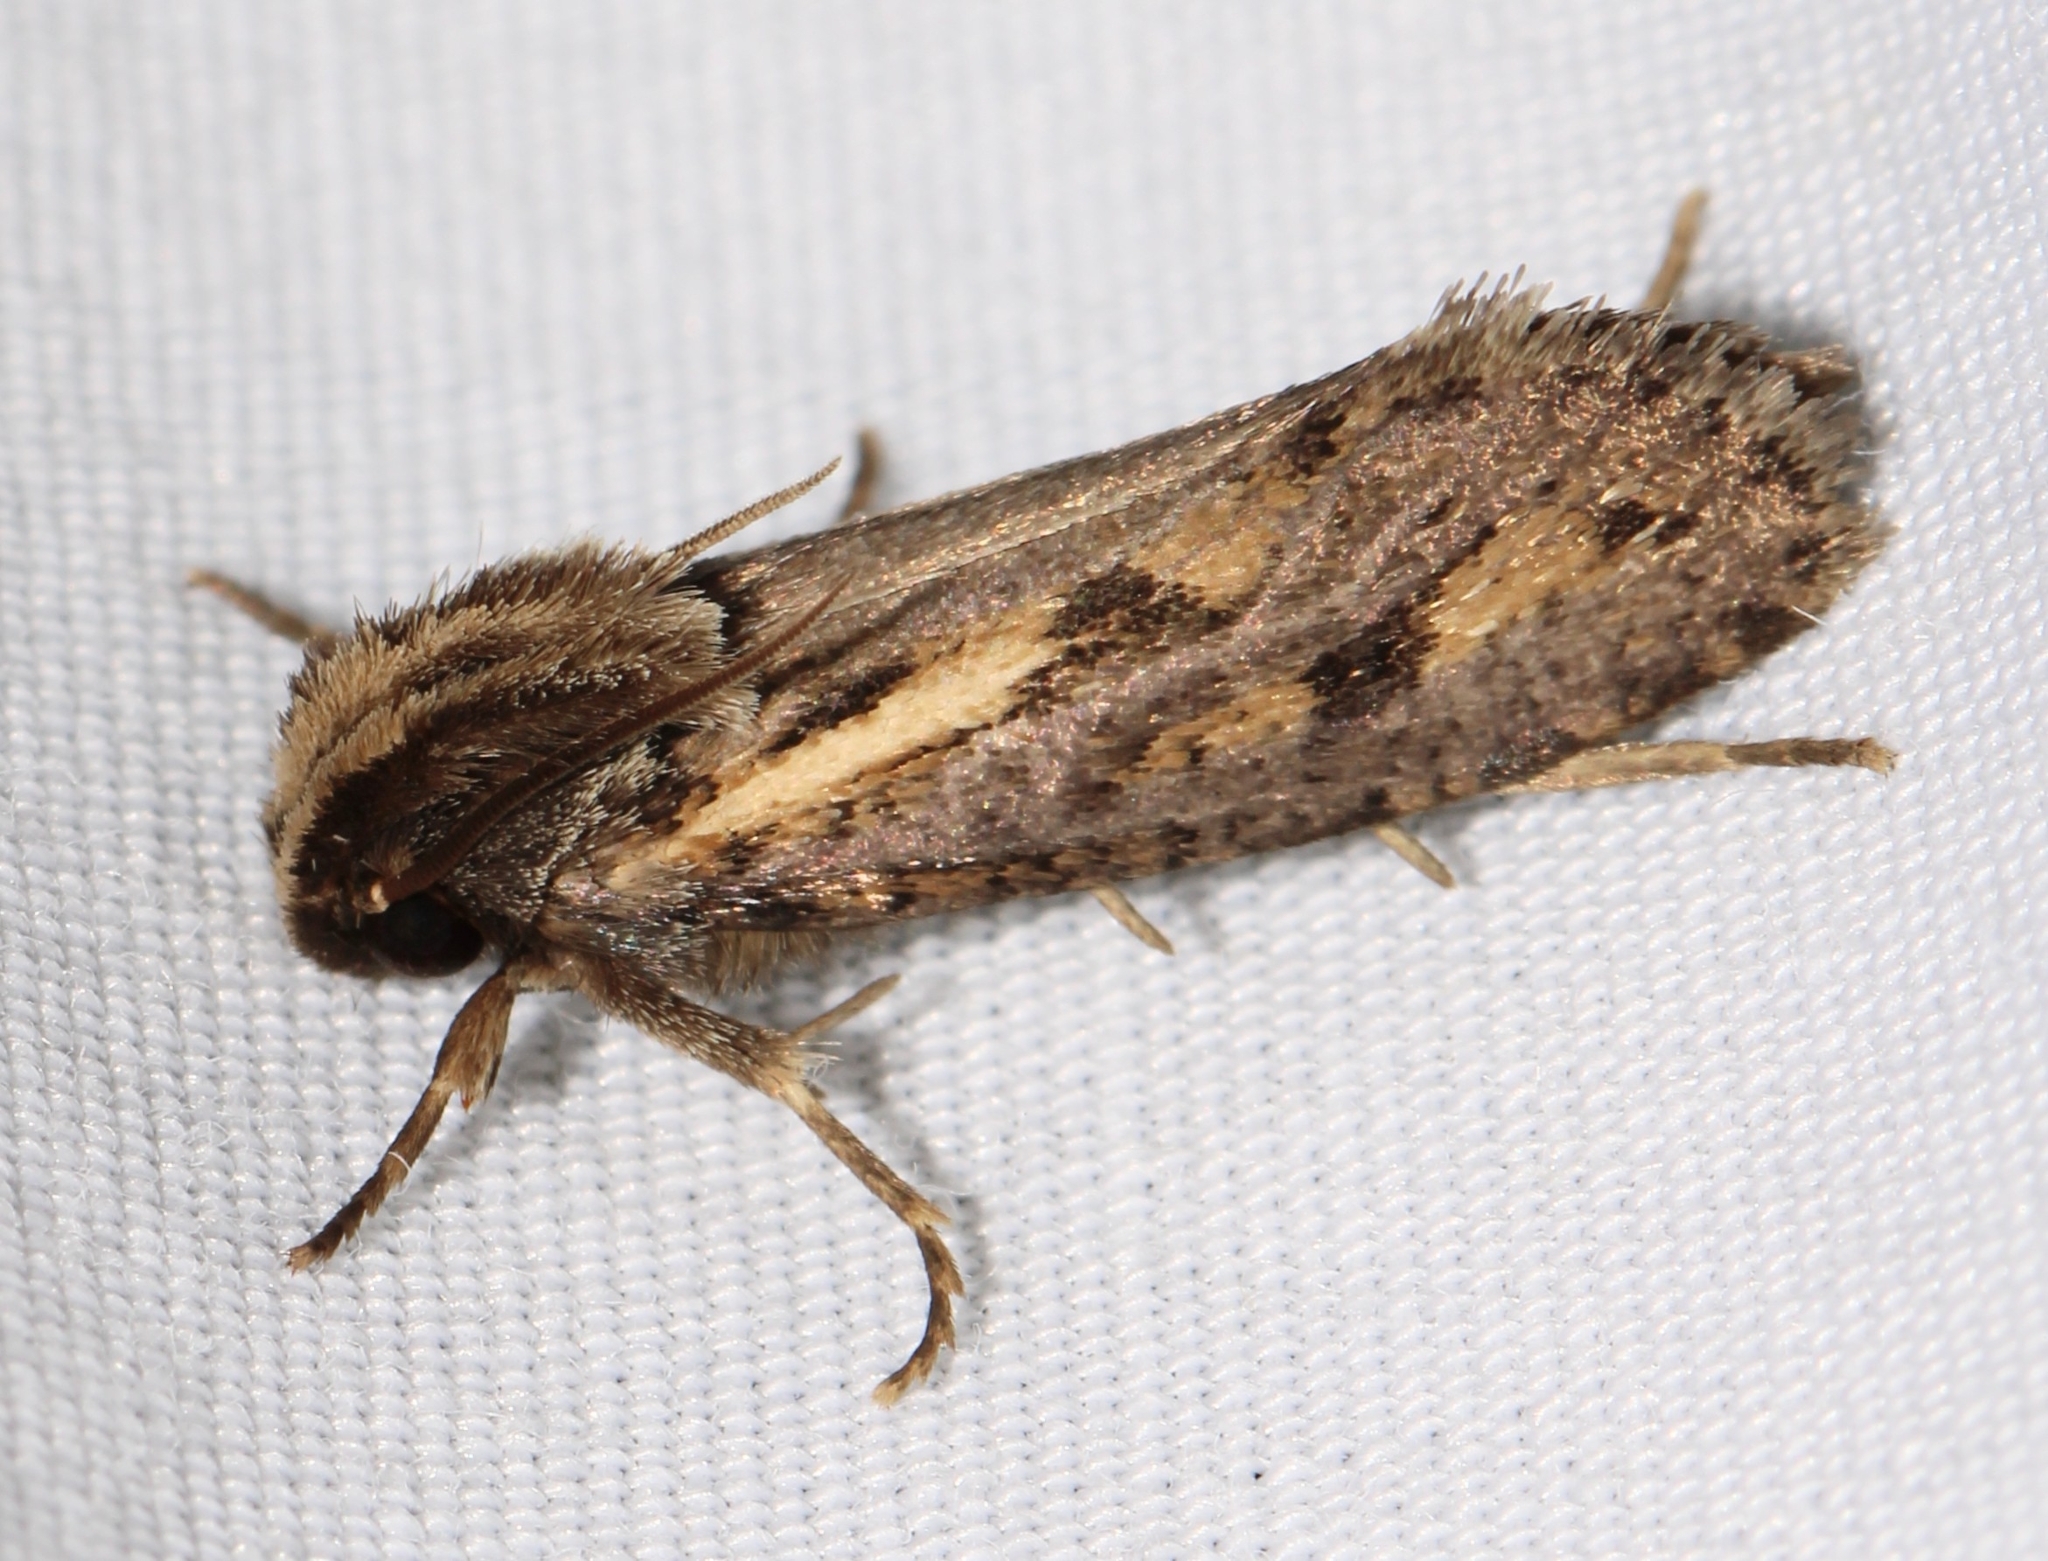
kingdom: Animalia
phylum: Arthropoda
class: Insecta
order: Lepidoptera
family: Tineidae
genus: Acrolophus
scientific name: Acrolophus popeanella
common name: Clemens' grass tubeworm moth
